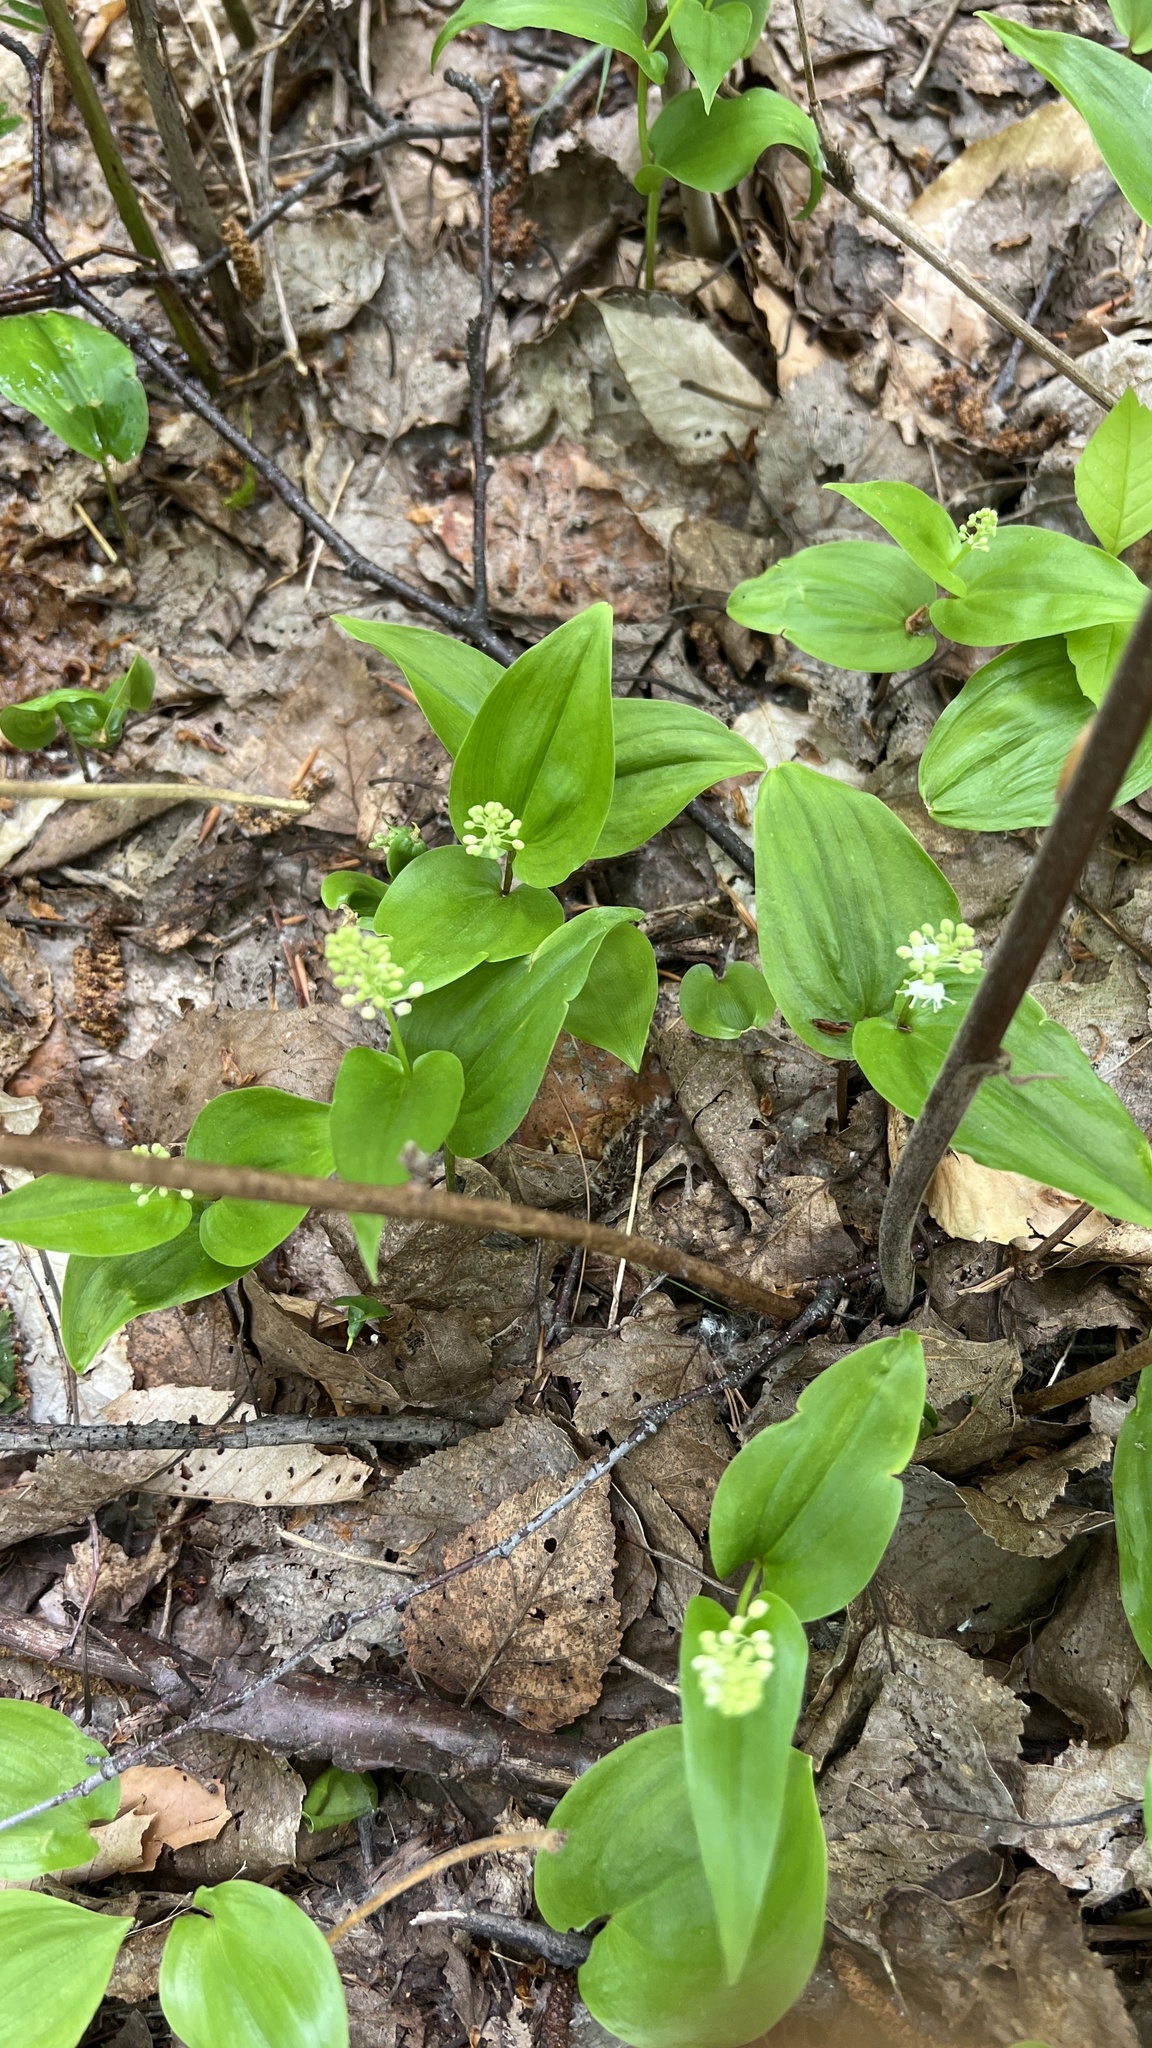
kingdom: Plantae
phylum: Tracheophyta
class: Liliopsida
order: Asparagales
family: Asparagaceae
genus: Maianthemum
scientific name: Maianthemum canadense
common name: False lily-of-the-valley
